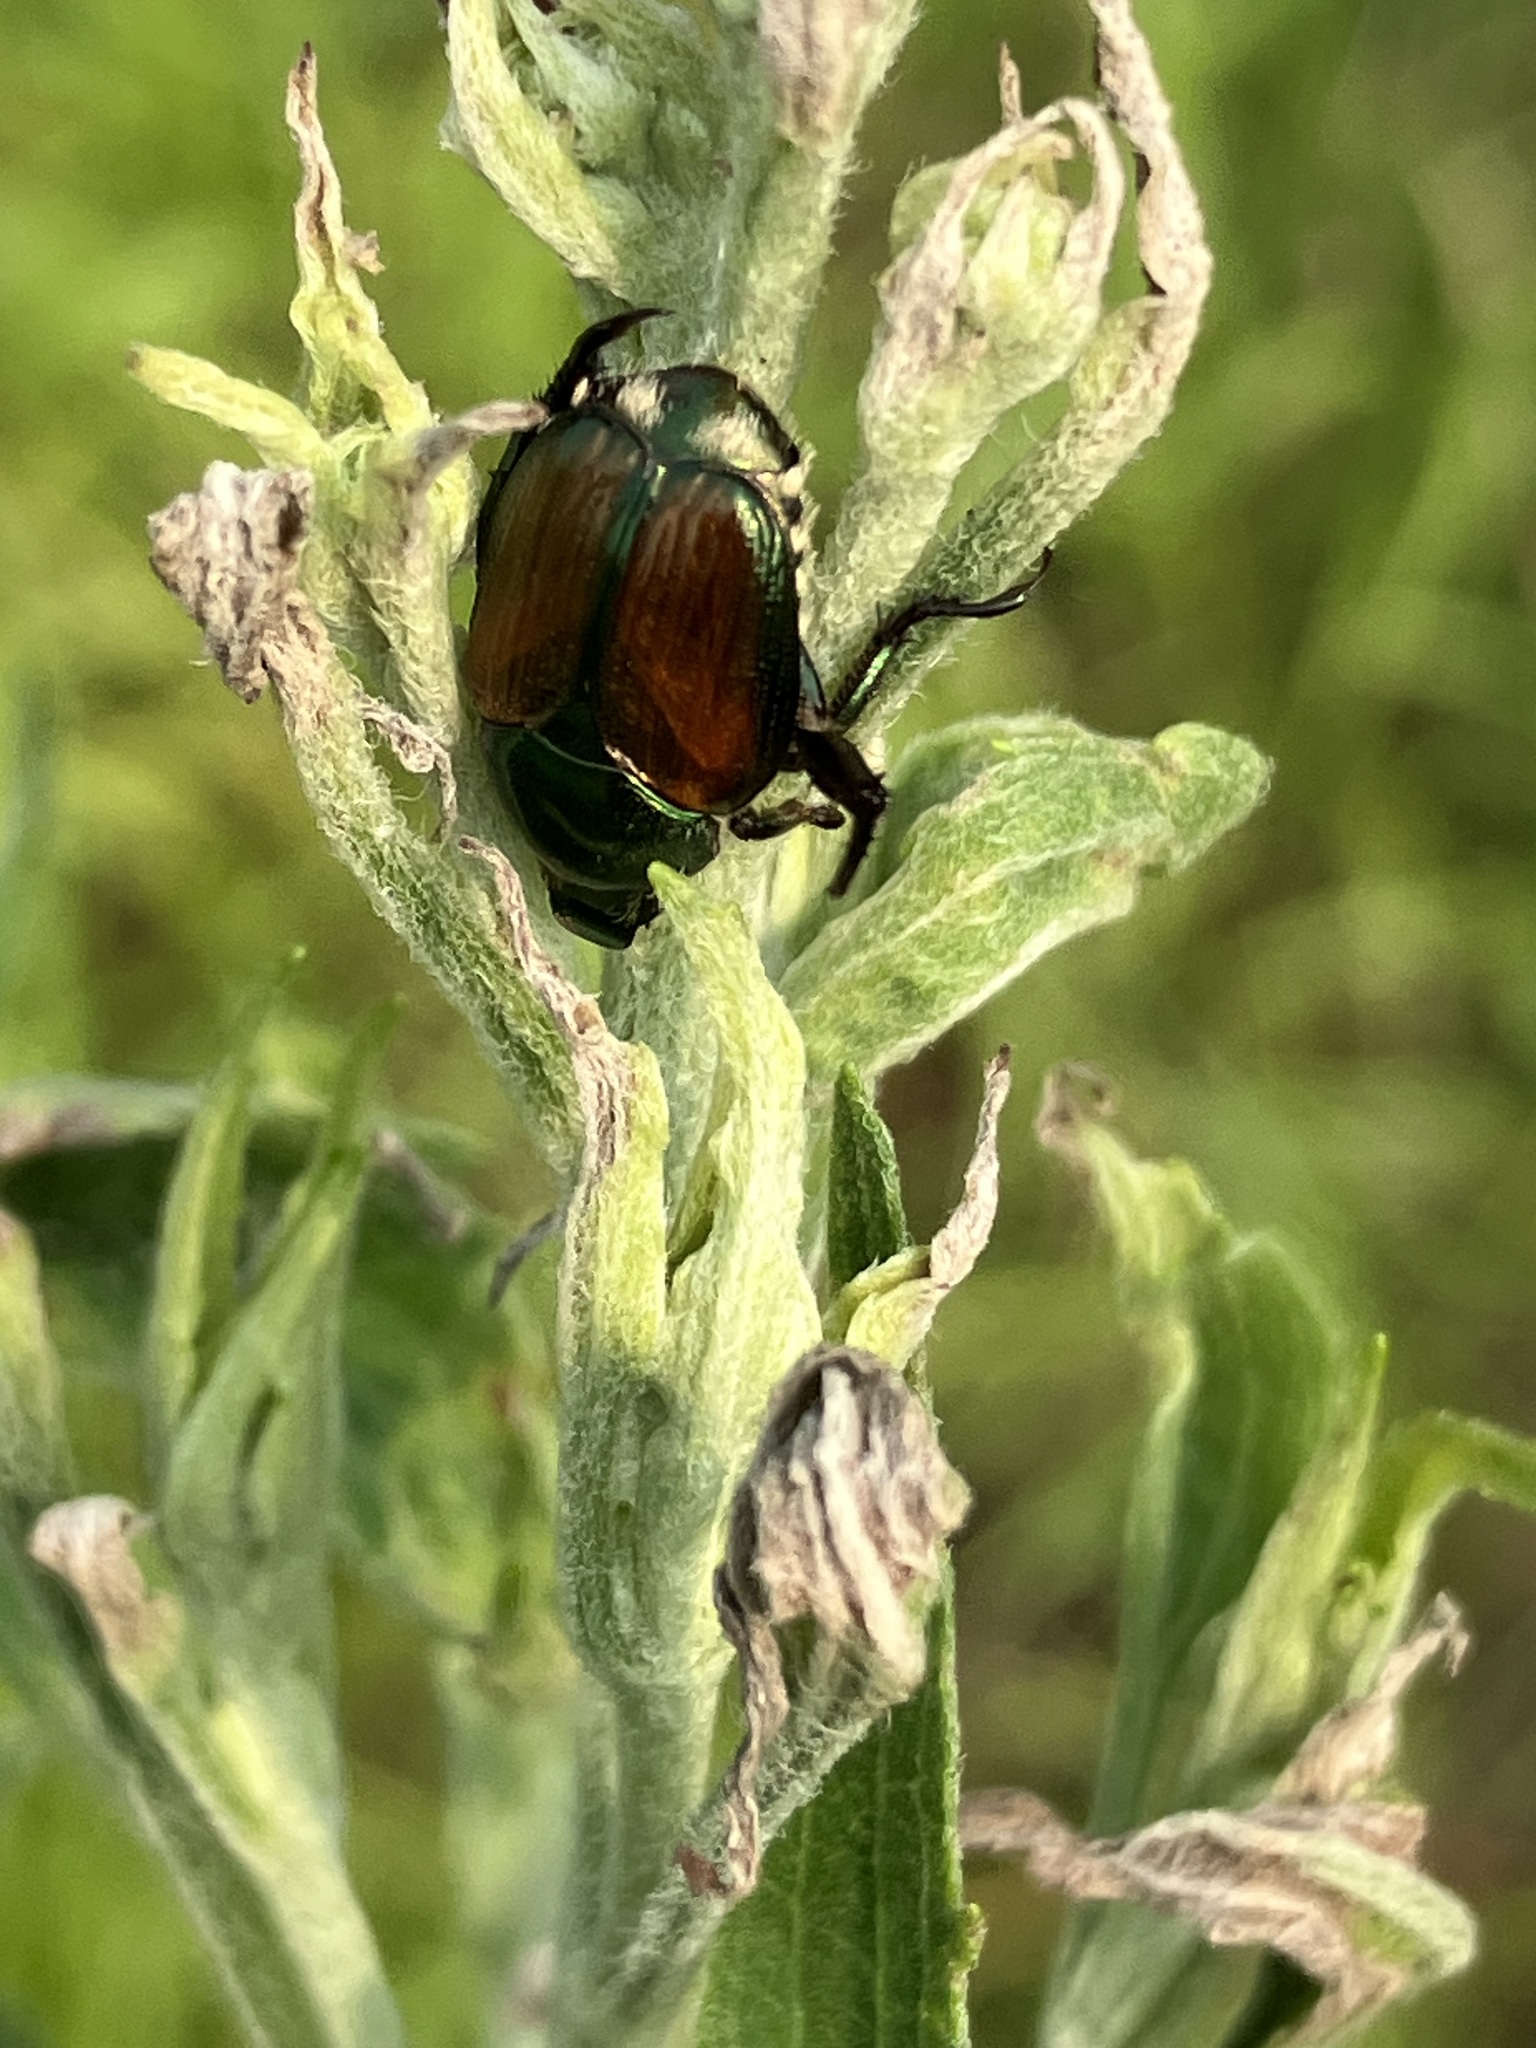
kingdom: Animalia
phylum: Arthropoda
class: Insecta
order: Coleoptera
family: Scarabaeidae
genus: Popillia
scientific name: Popillia japonica
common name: Japanese beetle
